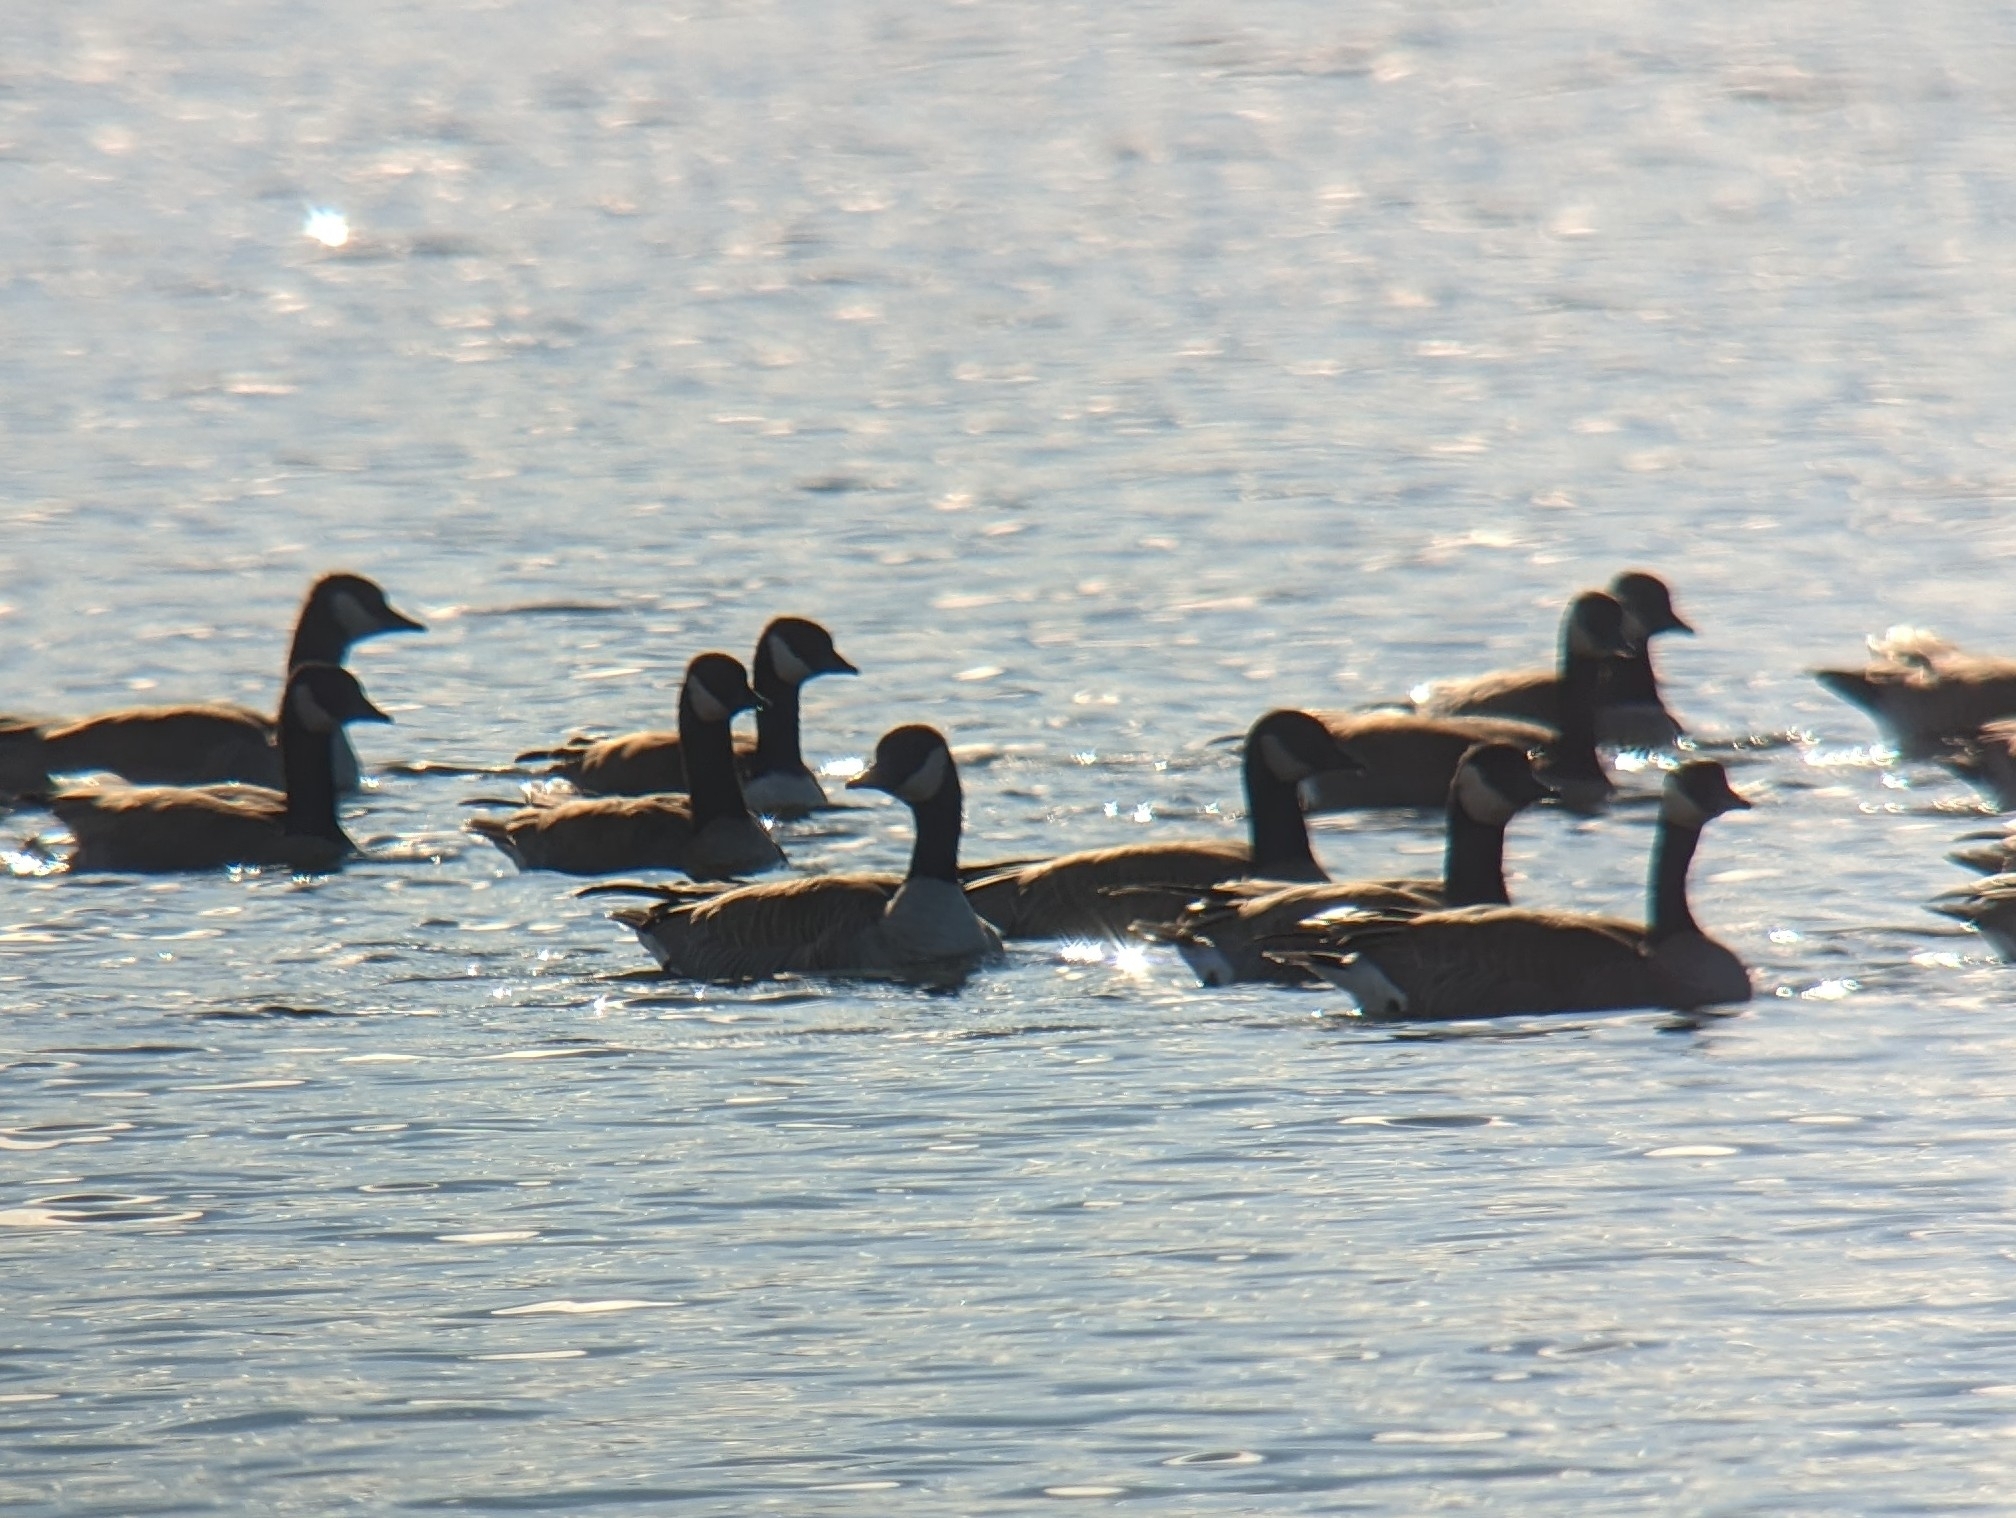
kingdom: Animalia
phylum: Chordata
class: Aves
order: Anseriformes
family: Anatidae
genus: Branta
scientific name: Branta canadensis
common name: Canada goose
